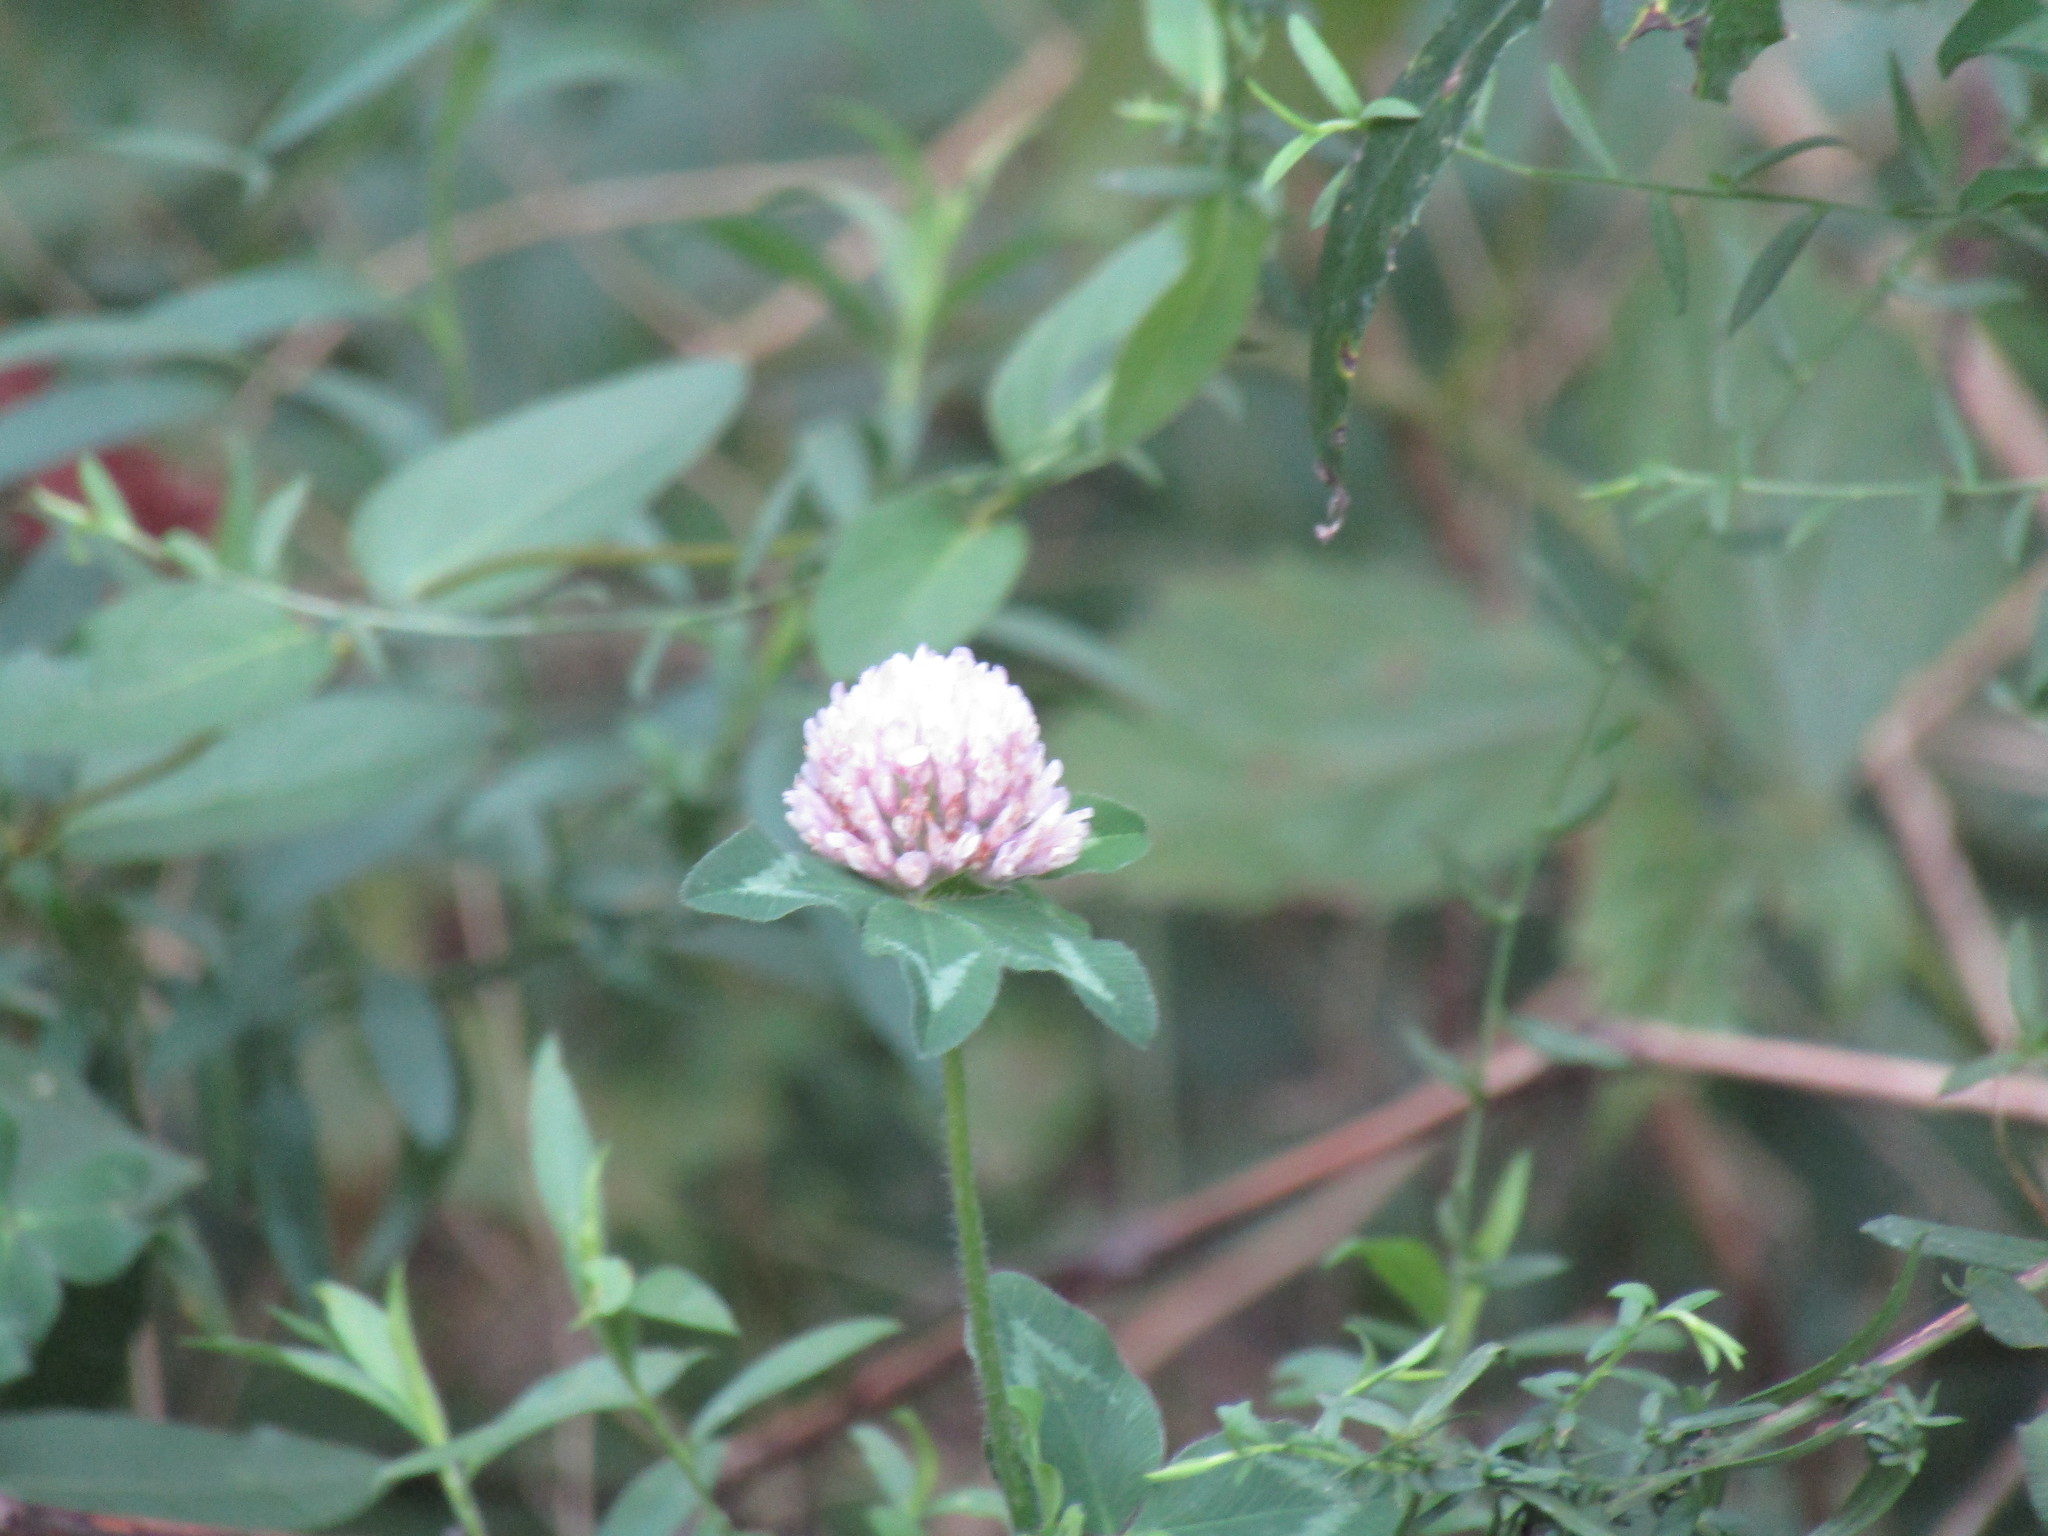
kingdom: Plantae
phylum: Tracheophyta
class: Magnoliopsida
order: Fabales
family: Fabaceae
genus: Trifolium
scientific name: Trifolium pratense
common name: Red clover
